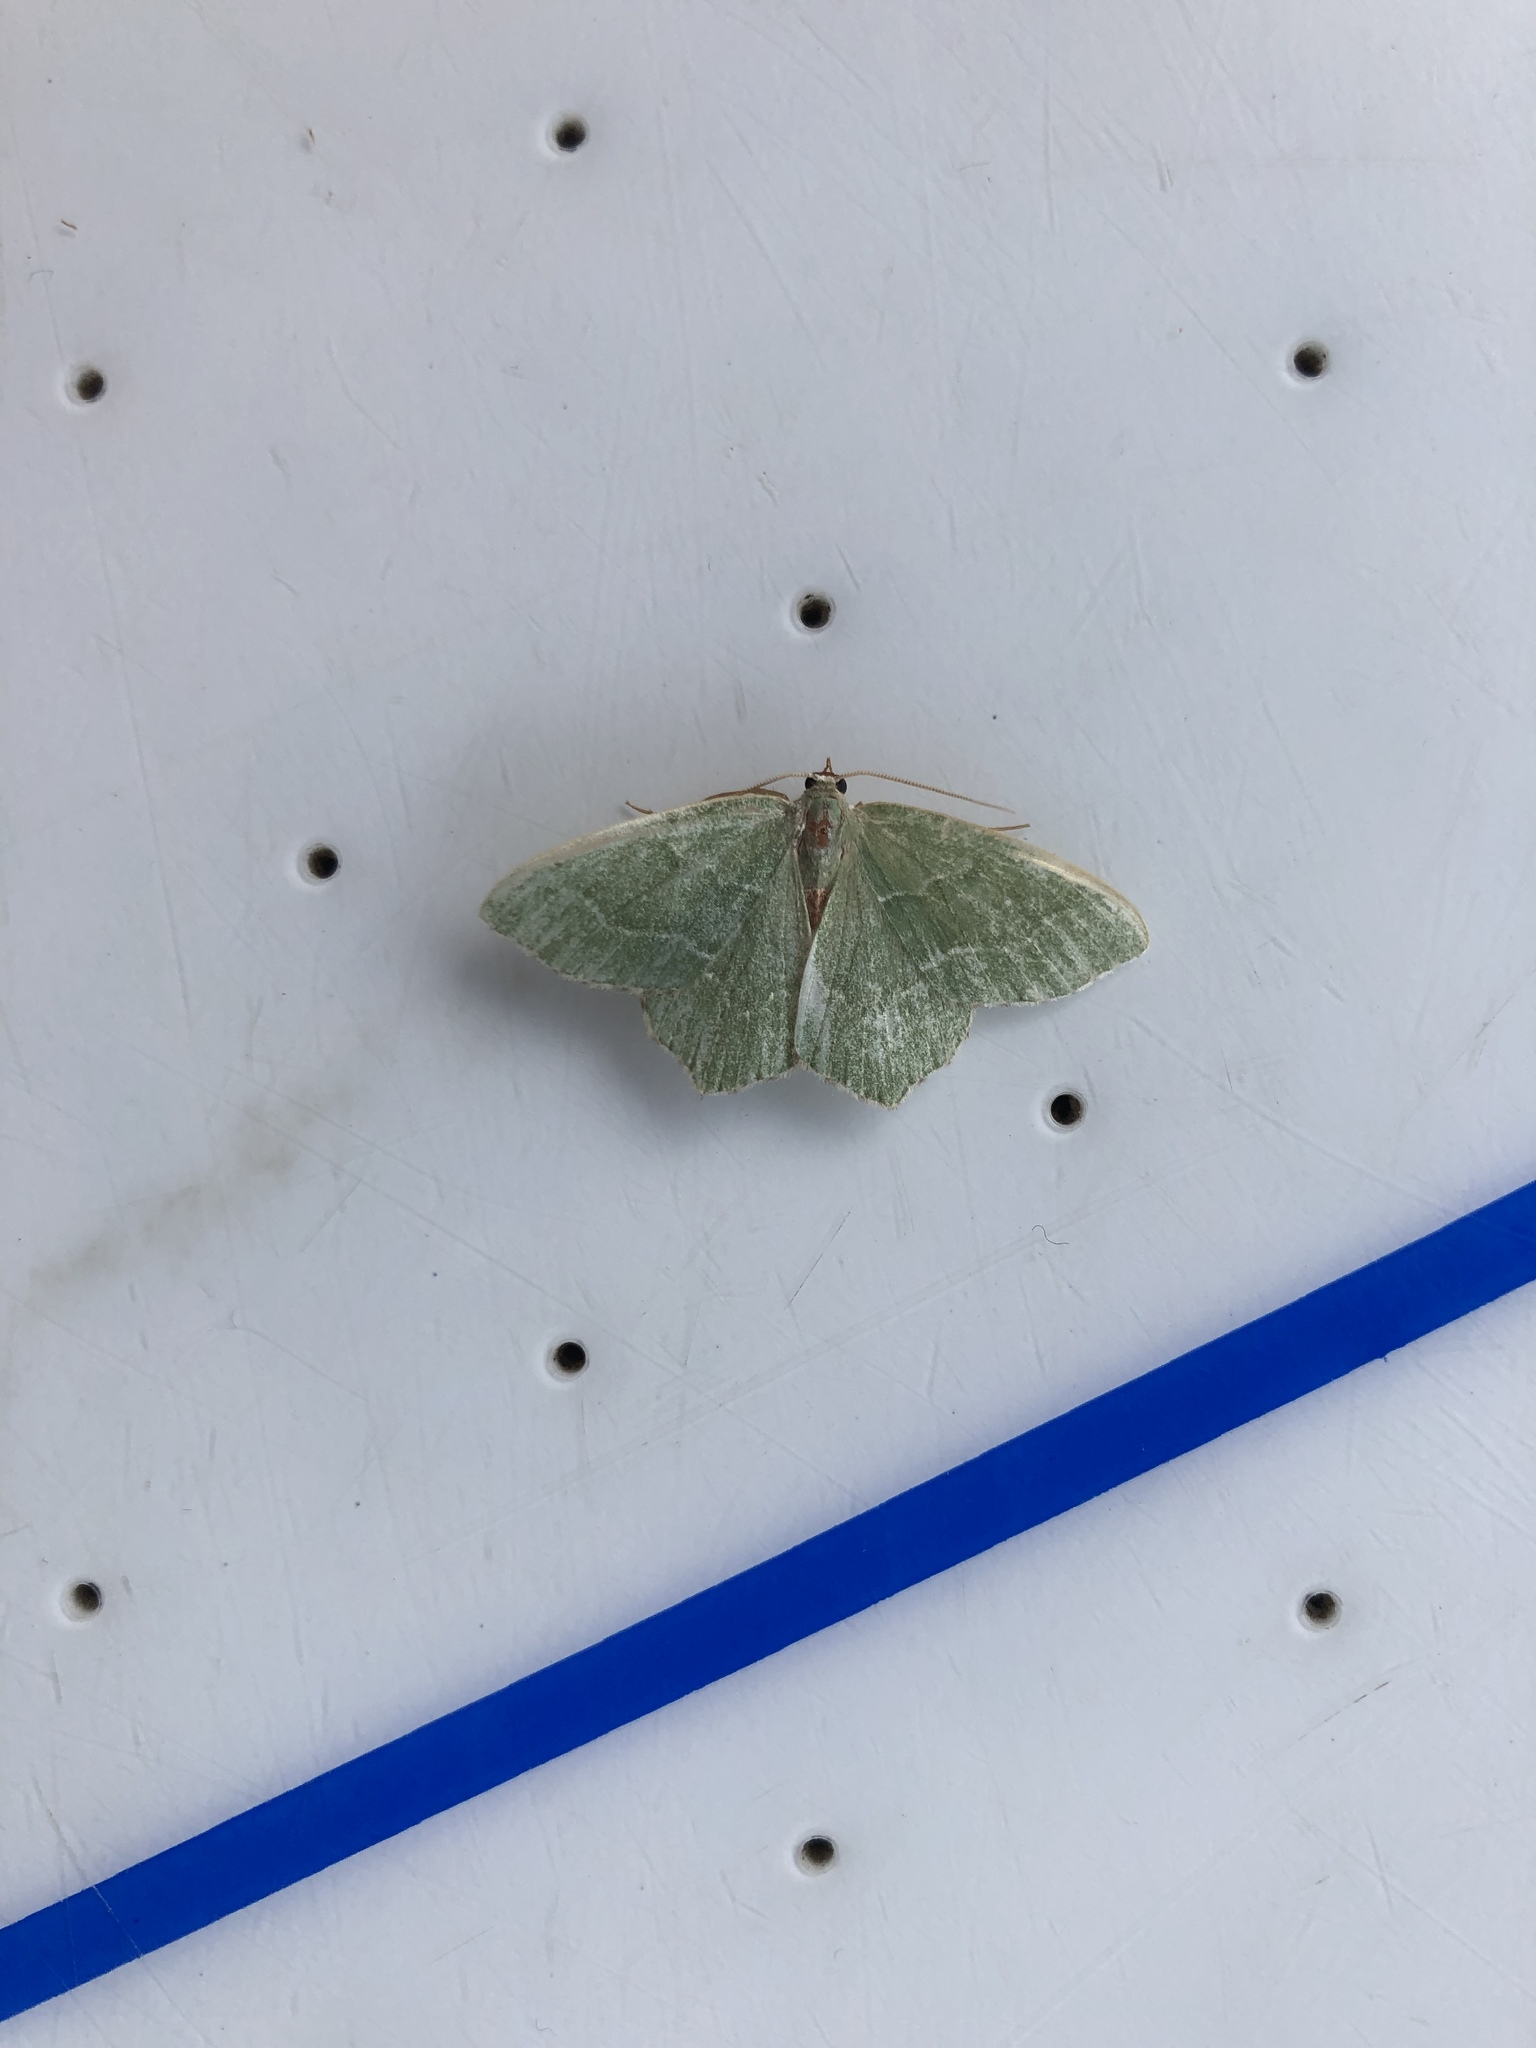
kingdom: Animalia
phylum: Arthropoda
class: Insecta
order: Lepidoptera
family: Geometridae
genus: Hemithea
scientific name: Hemithea aestivaria
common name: Common emerald
